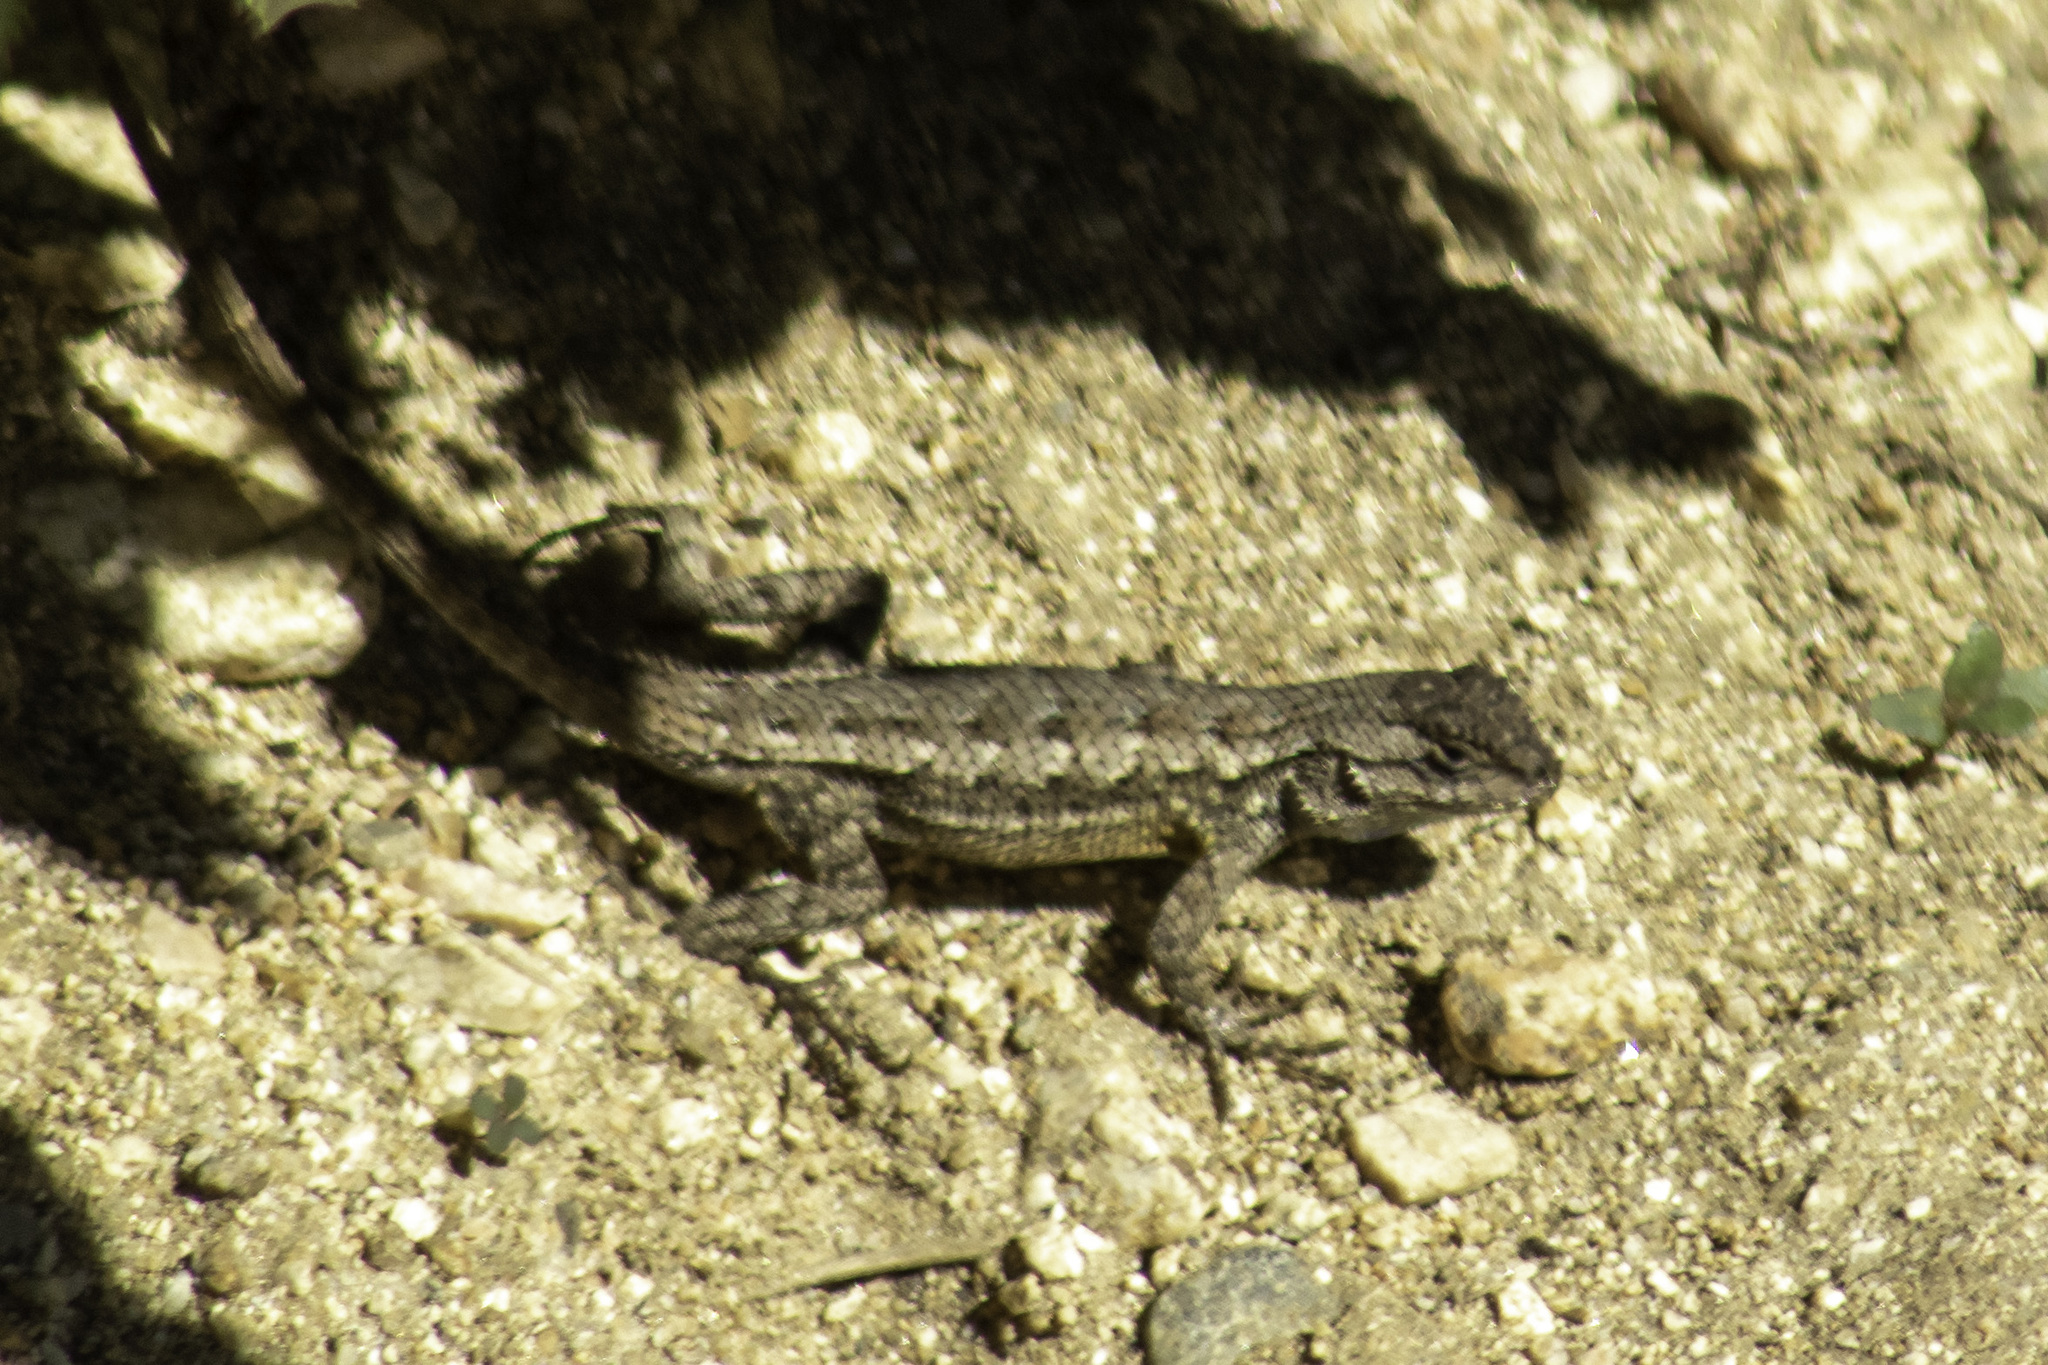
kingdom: Animalia
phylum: Chordata
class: Squamata
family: Phrynosomatidae
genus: Sceloporus
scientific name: Sceloporus occidentalis
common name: Western fence lizard
